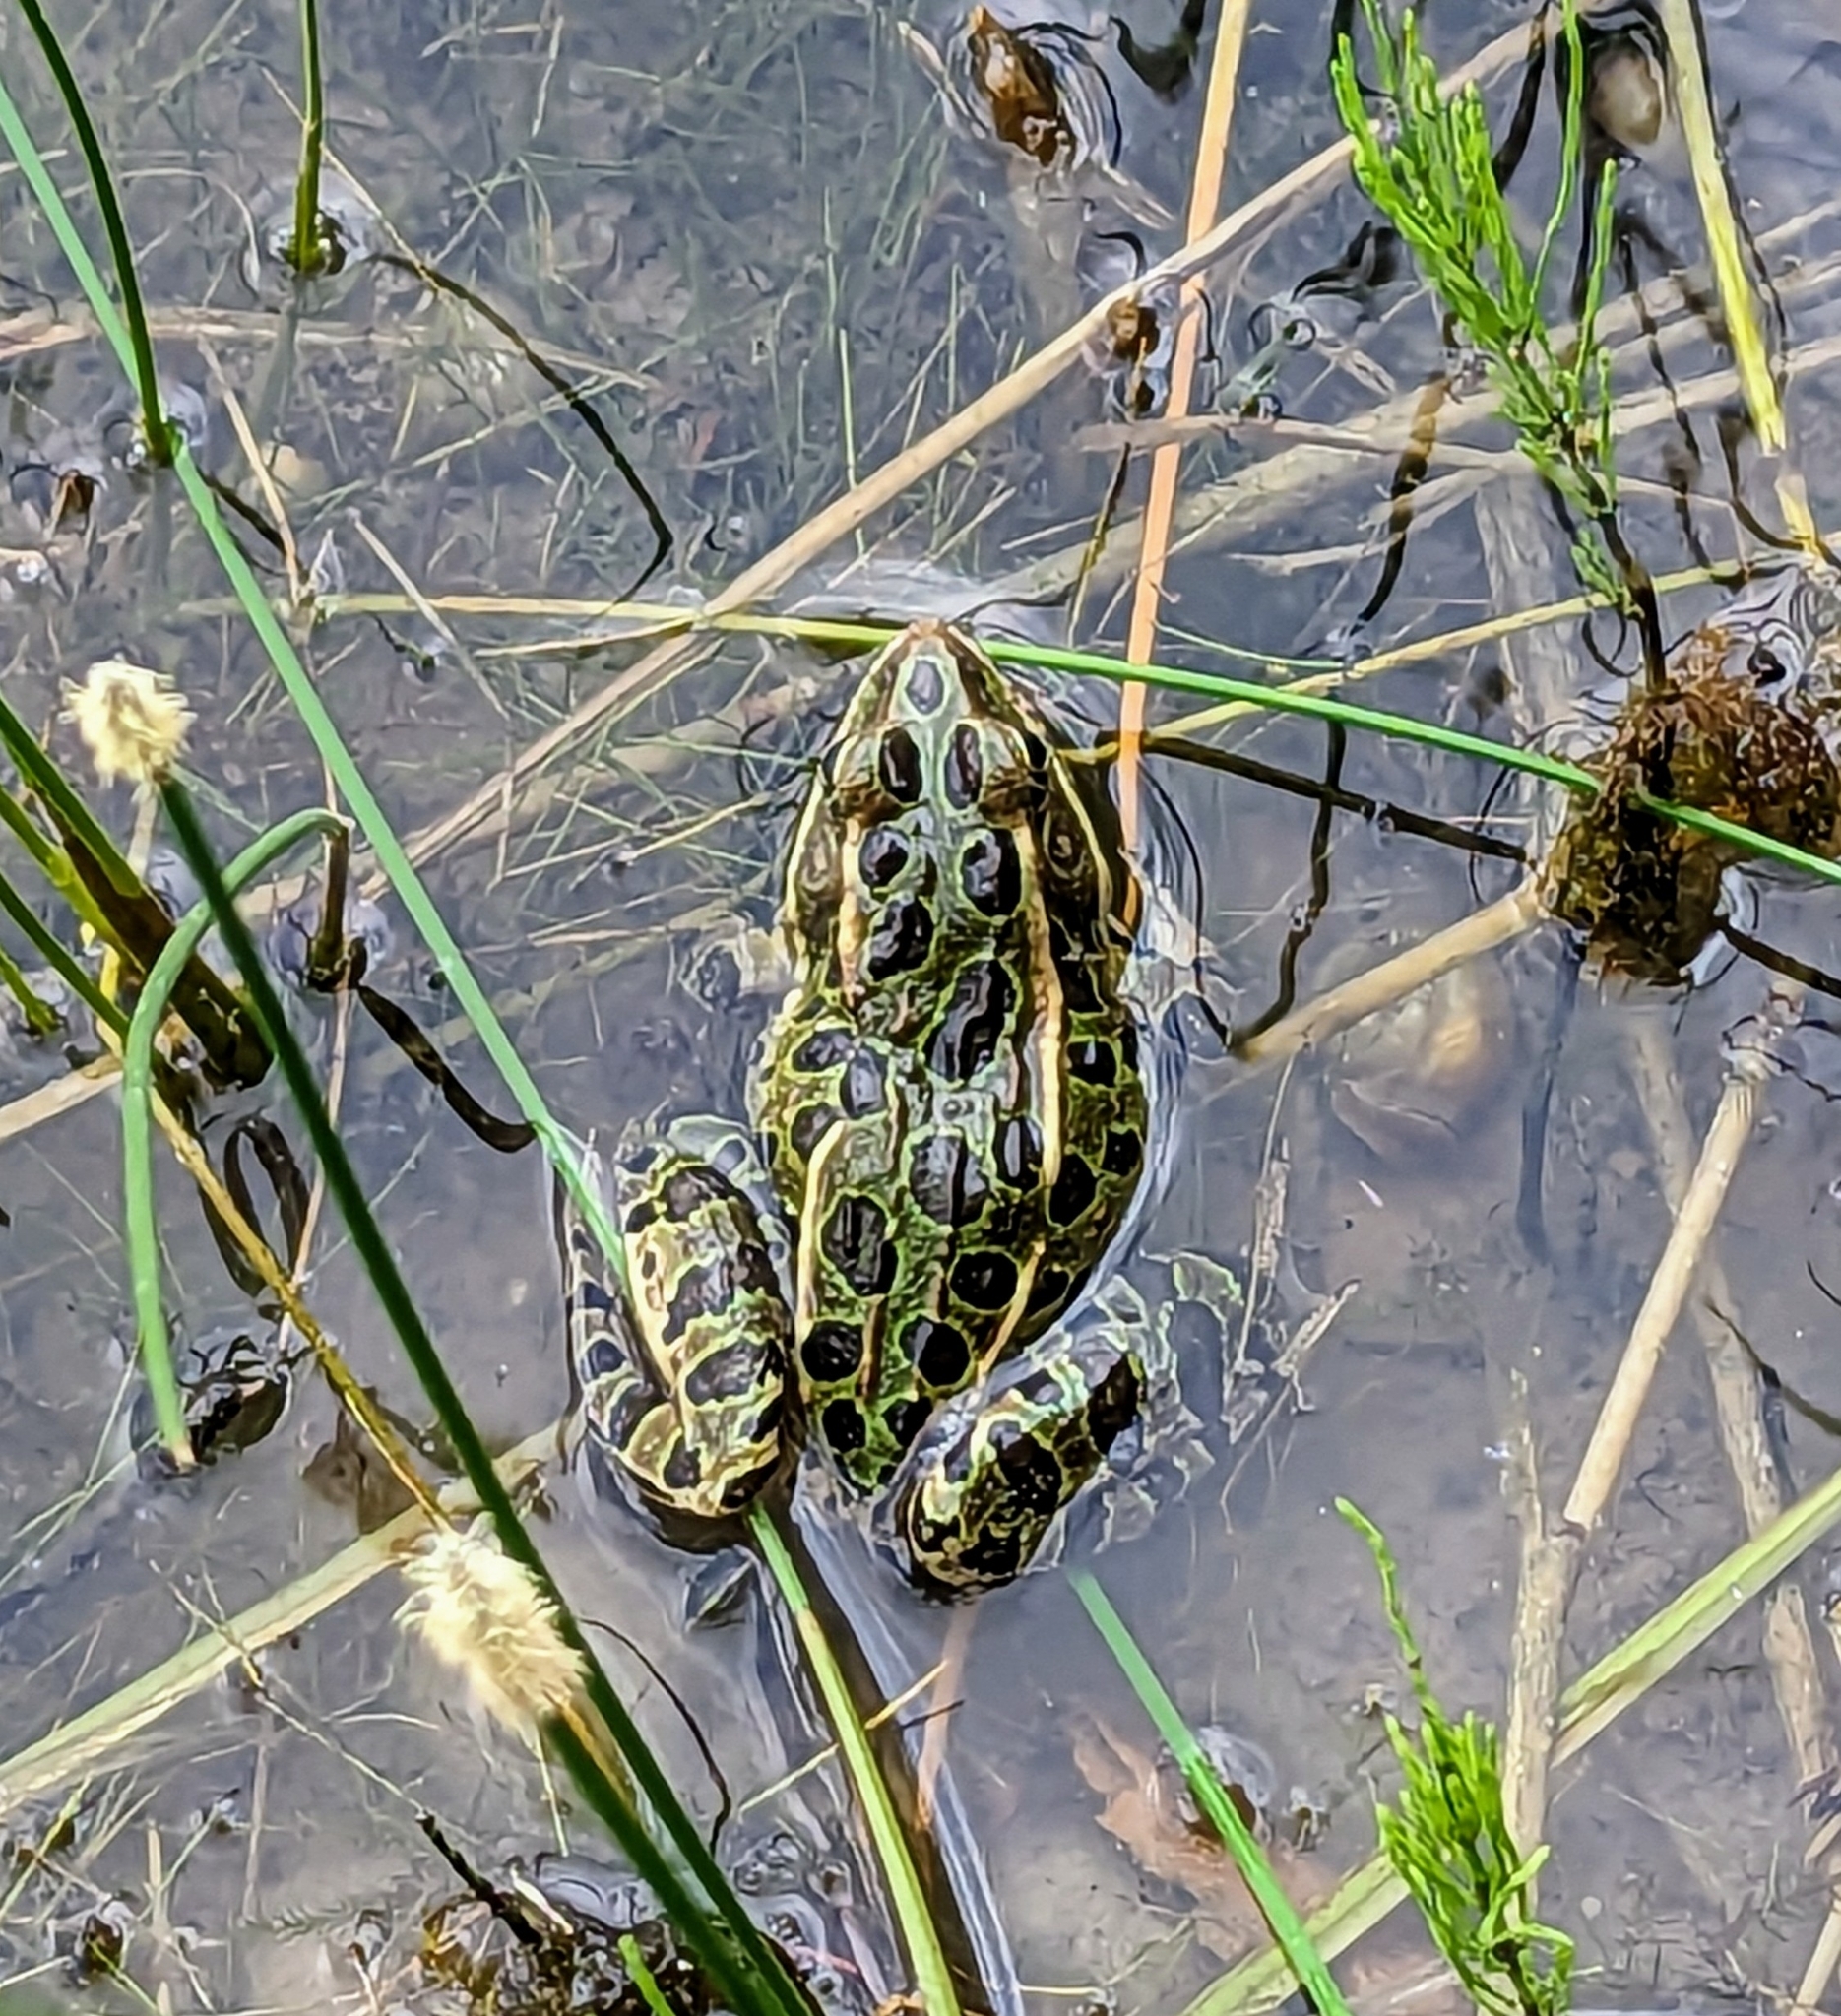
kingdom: Animalia
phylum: Chordata
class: Amphibia
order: Anura
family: Ranidae
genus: Lithobates
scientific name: Lithobates pipiens
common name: Northern leopard frog
